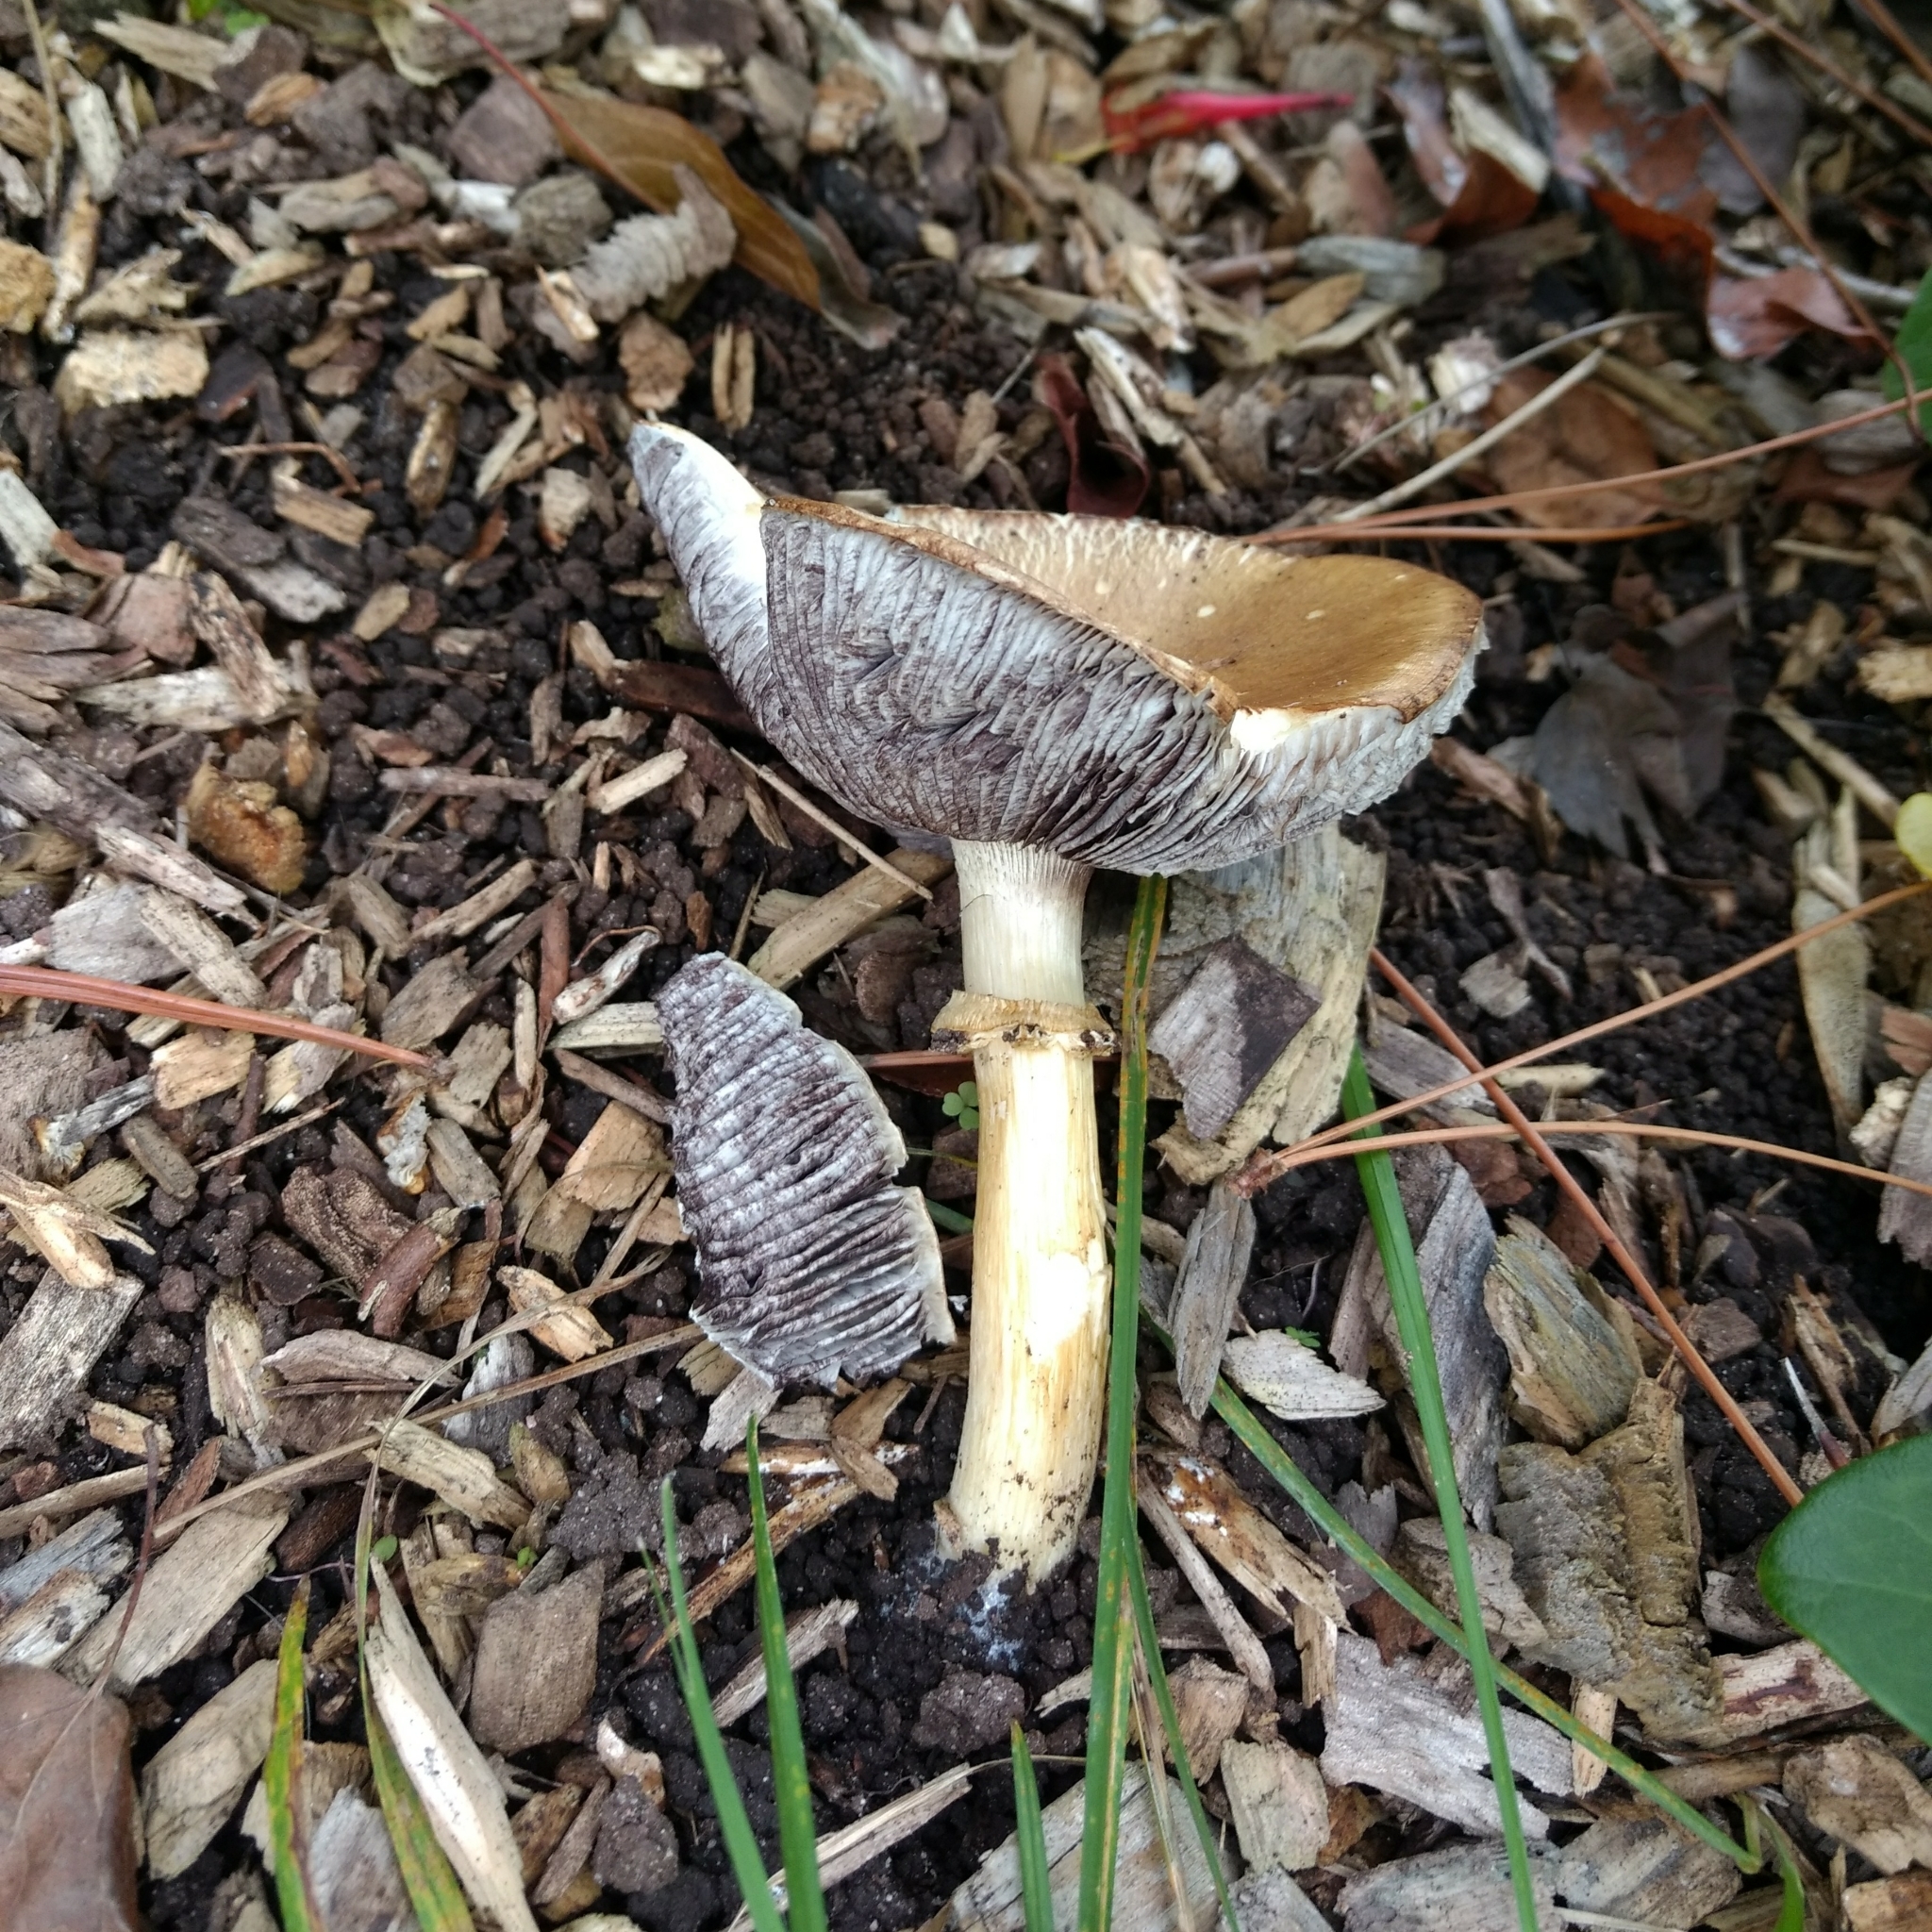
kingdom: Fungi
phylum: Basidiomycota
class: Agaricomycetes
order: Agaricales
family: Strophariaceae
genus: Stropharia
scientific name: Stropharia rugosoannulata
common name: Wine roundhead
